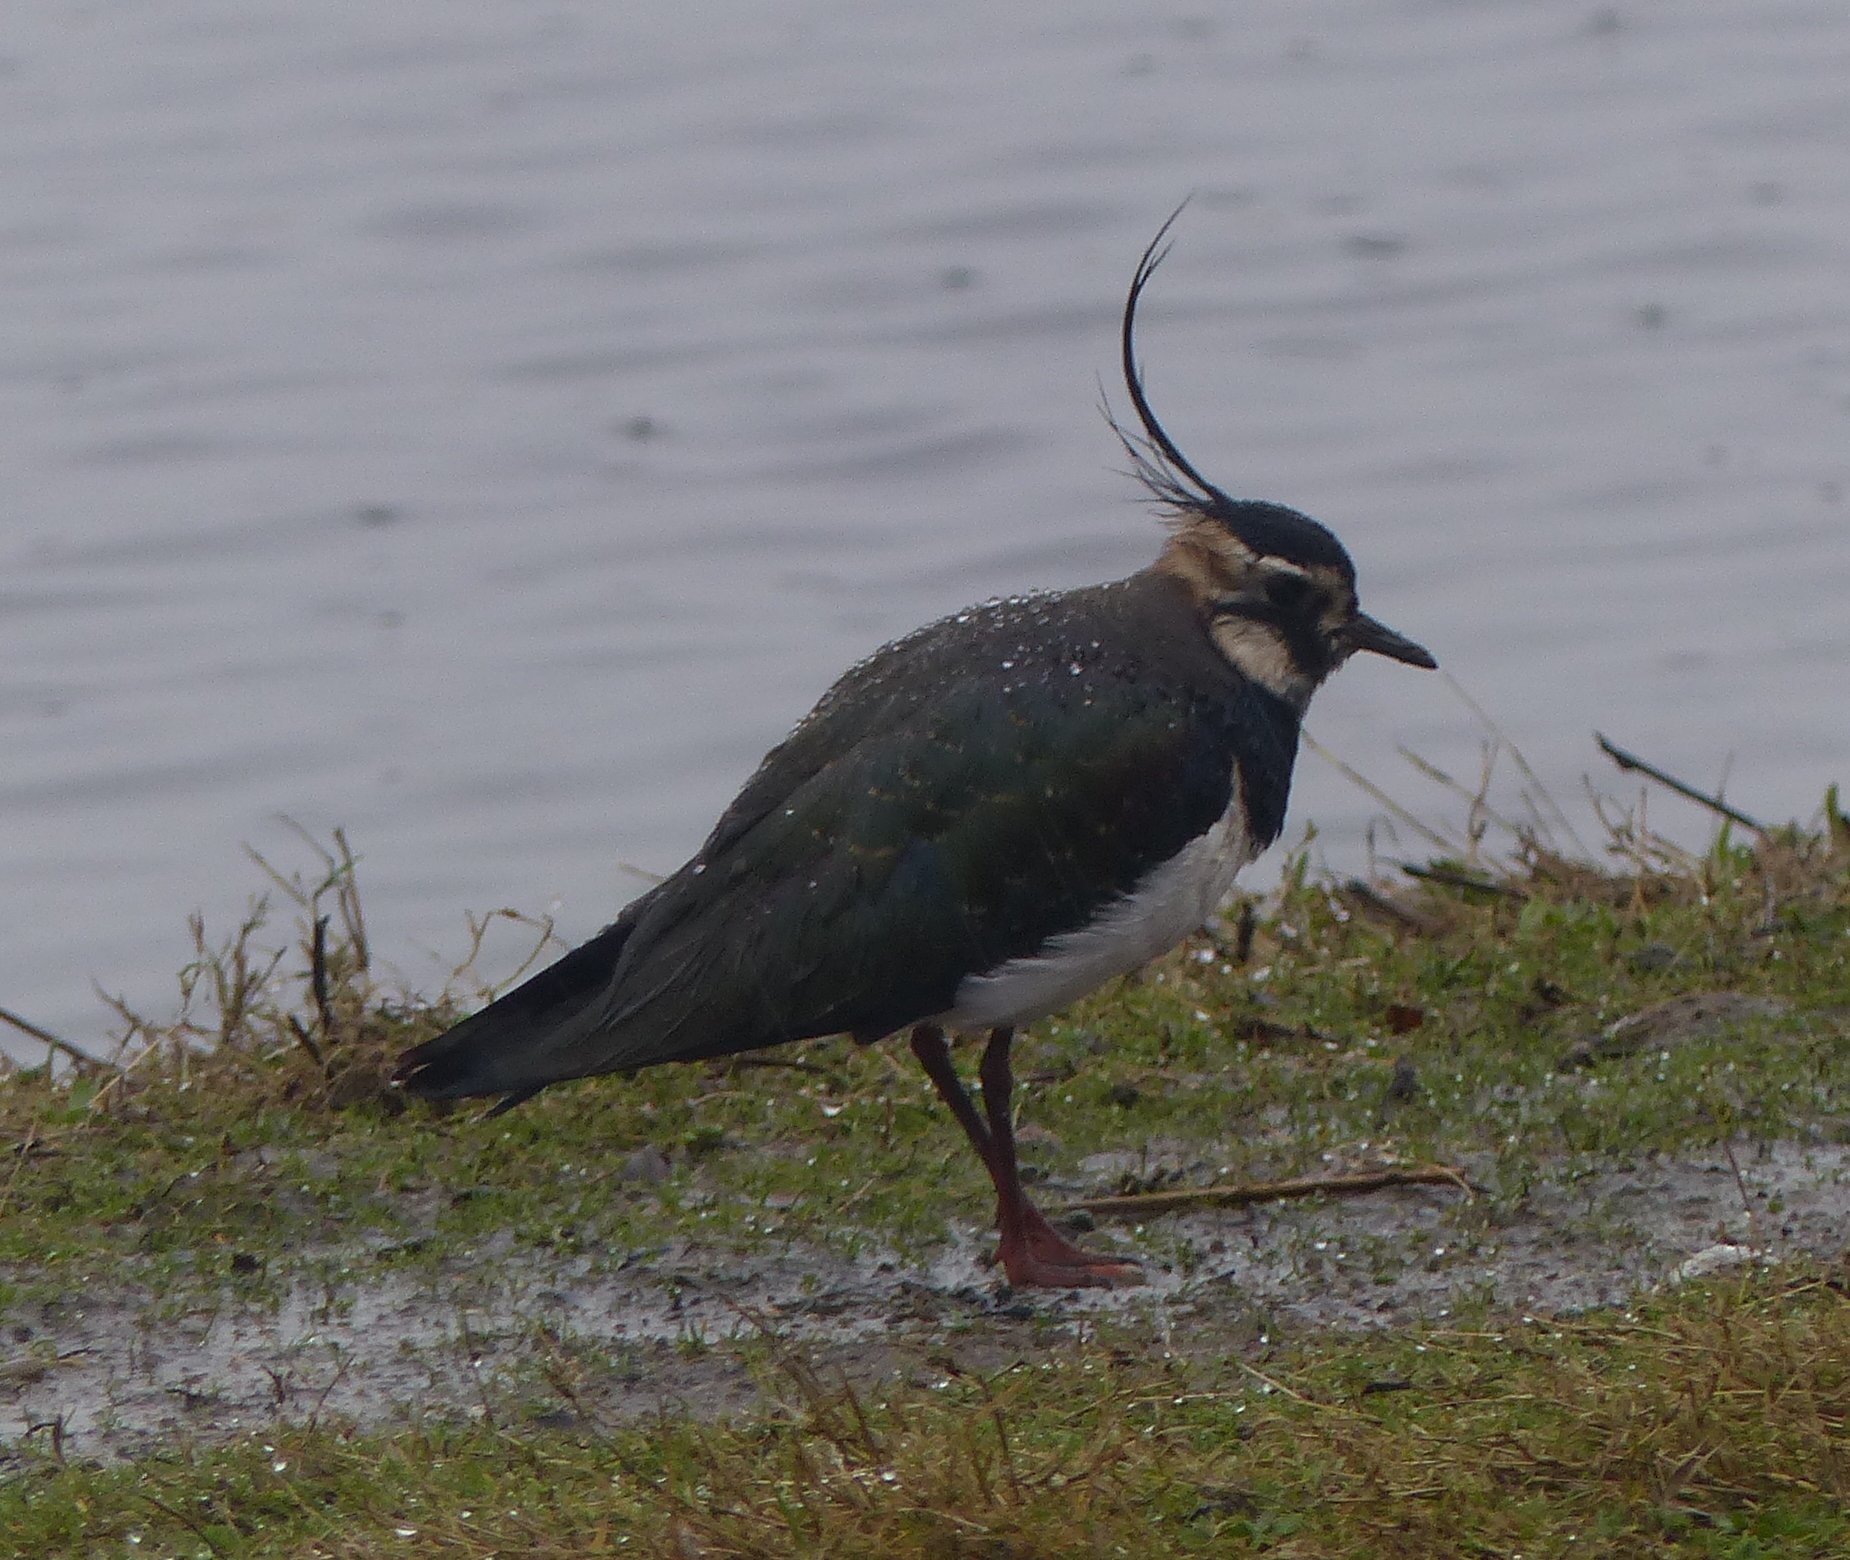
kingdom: Animalia
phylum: Chordata
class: Aves
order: Charadriiformes
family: Charadriidae
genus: Vanellus
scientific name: Vanellus vanellus
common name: Northern lapwing
